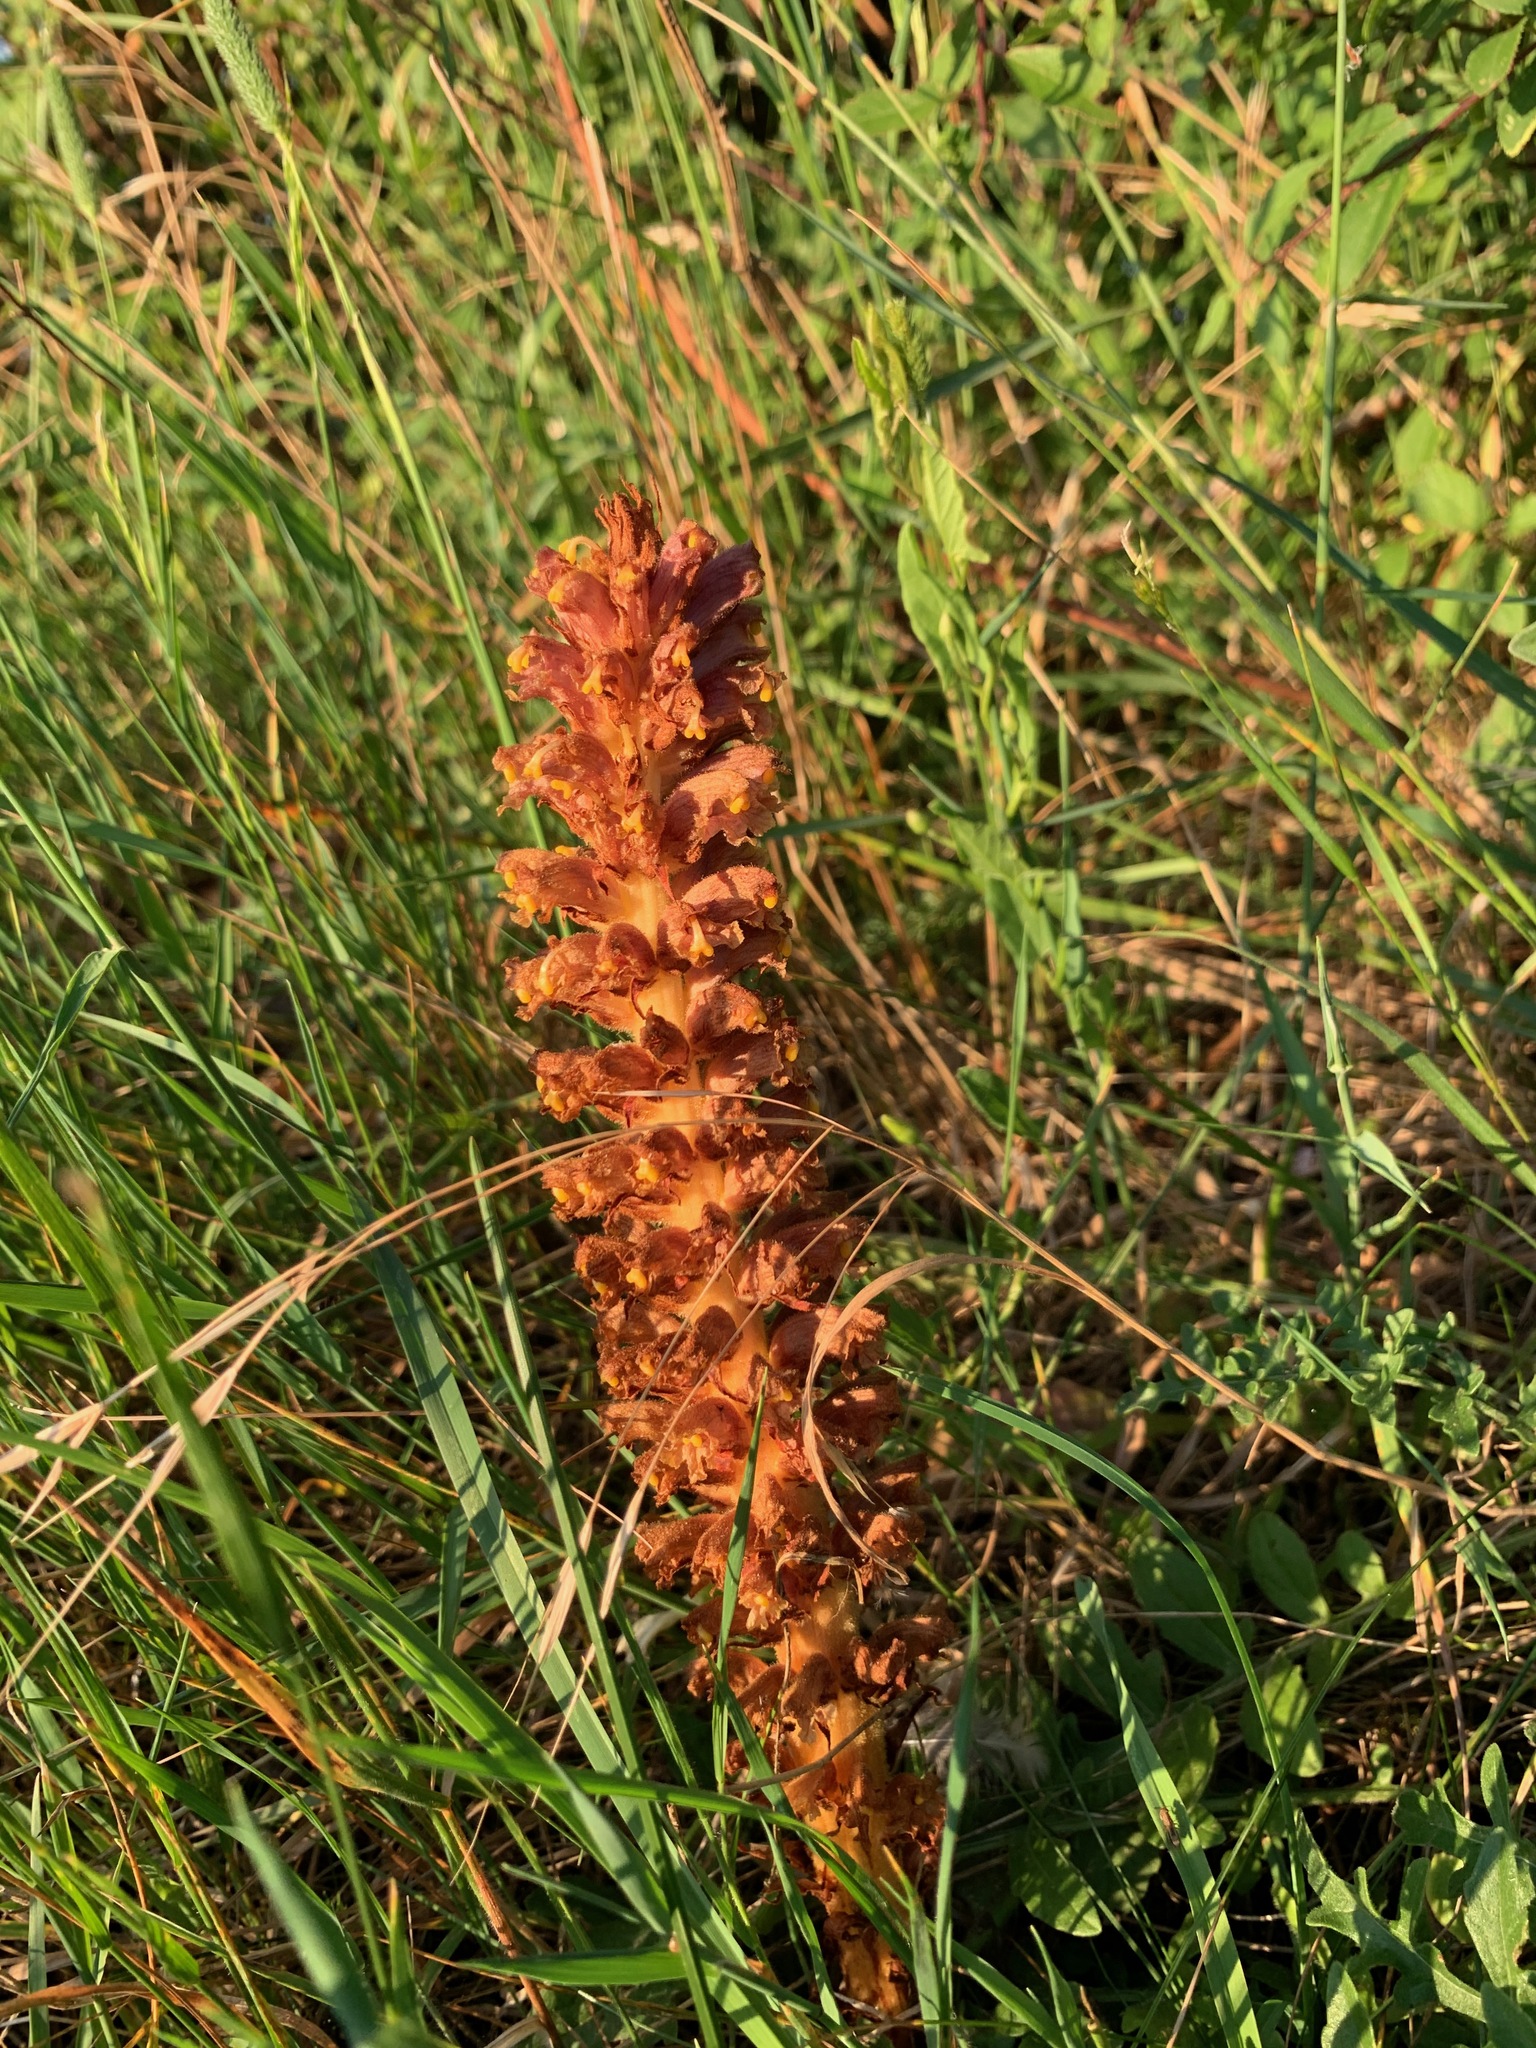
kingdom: Plantae
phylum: Tracheophyta
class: Magnoliopsida
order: Lamiales
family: Orobanchaceae
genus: Orobanche
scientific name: Orobanche elatior
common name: Knapweed broomrape
